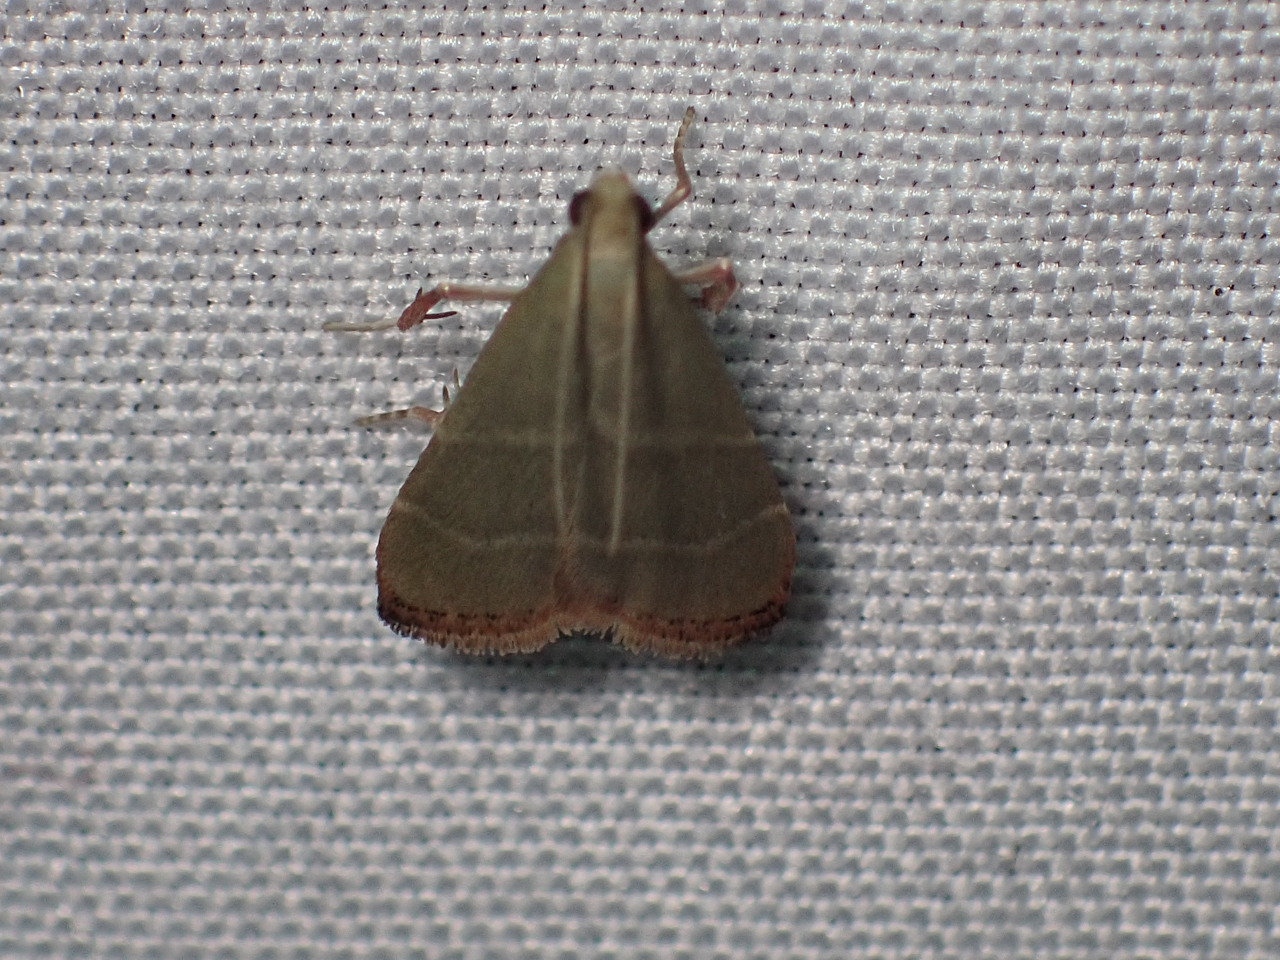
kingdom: Animalia
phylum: Arthropoda
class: Insecta
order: Lepidoptera
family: Pyralidae
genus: Arta
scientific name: Arta olivalis
